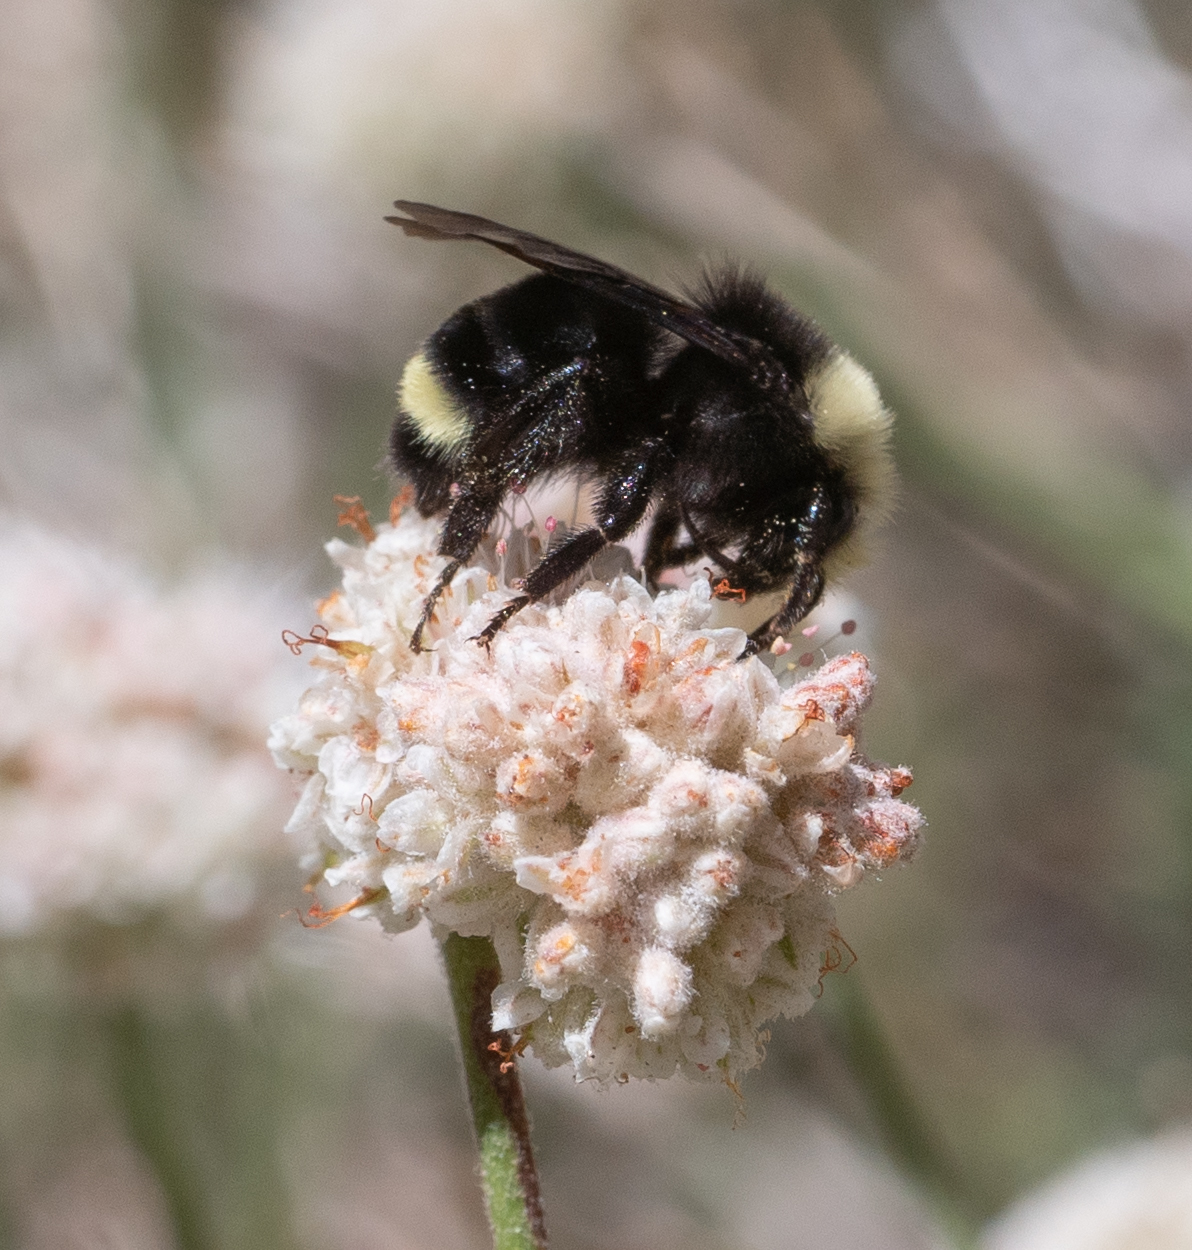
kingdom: Animalia
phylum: Arthropoda
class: Insecta
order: Hymenoptera
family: Apidae
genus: Bombus
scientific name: Bombus vosnesenskii
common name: Vosnesensky bumble bee
